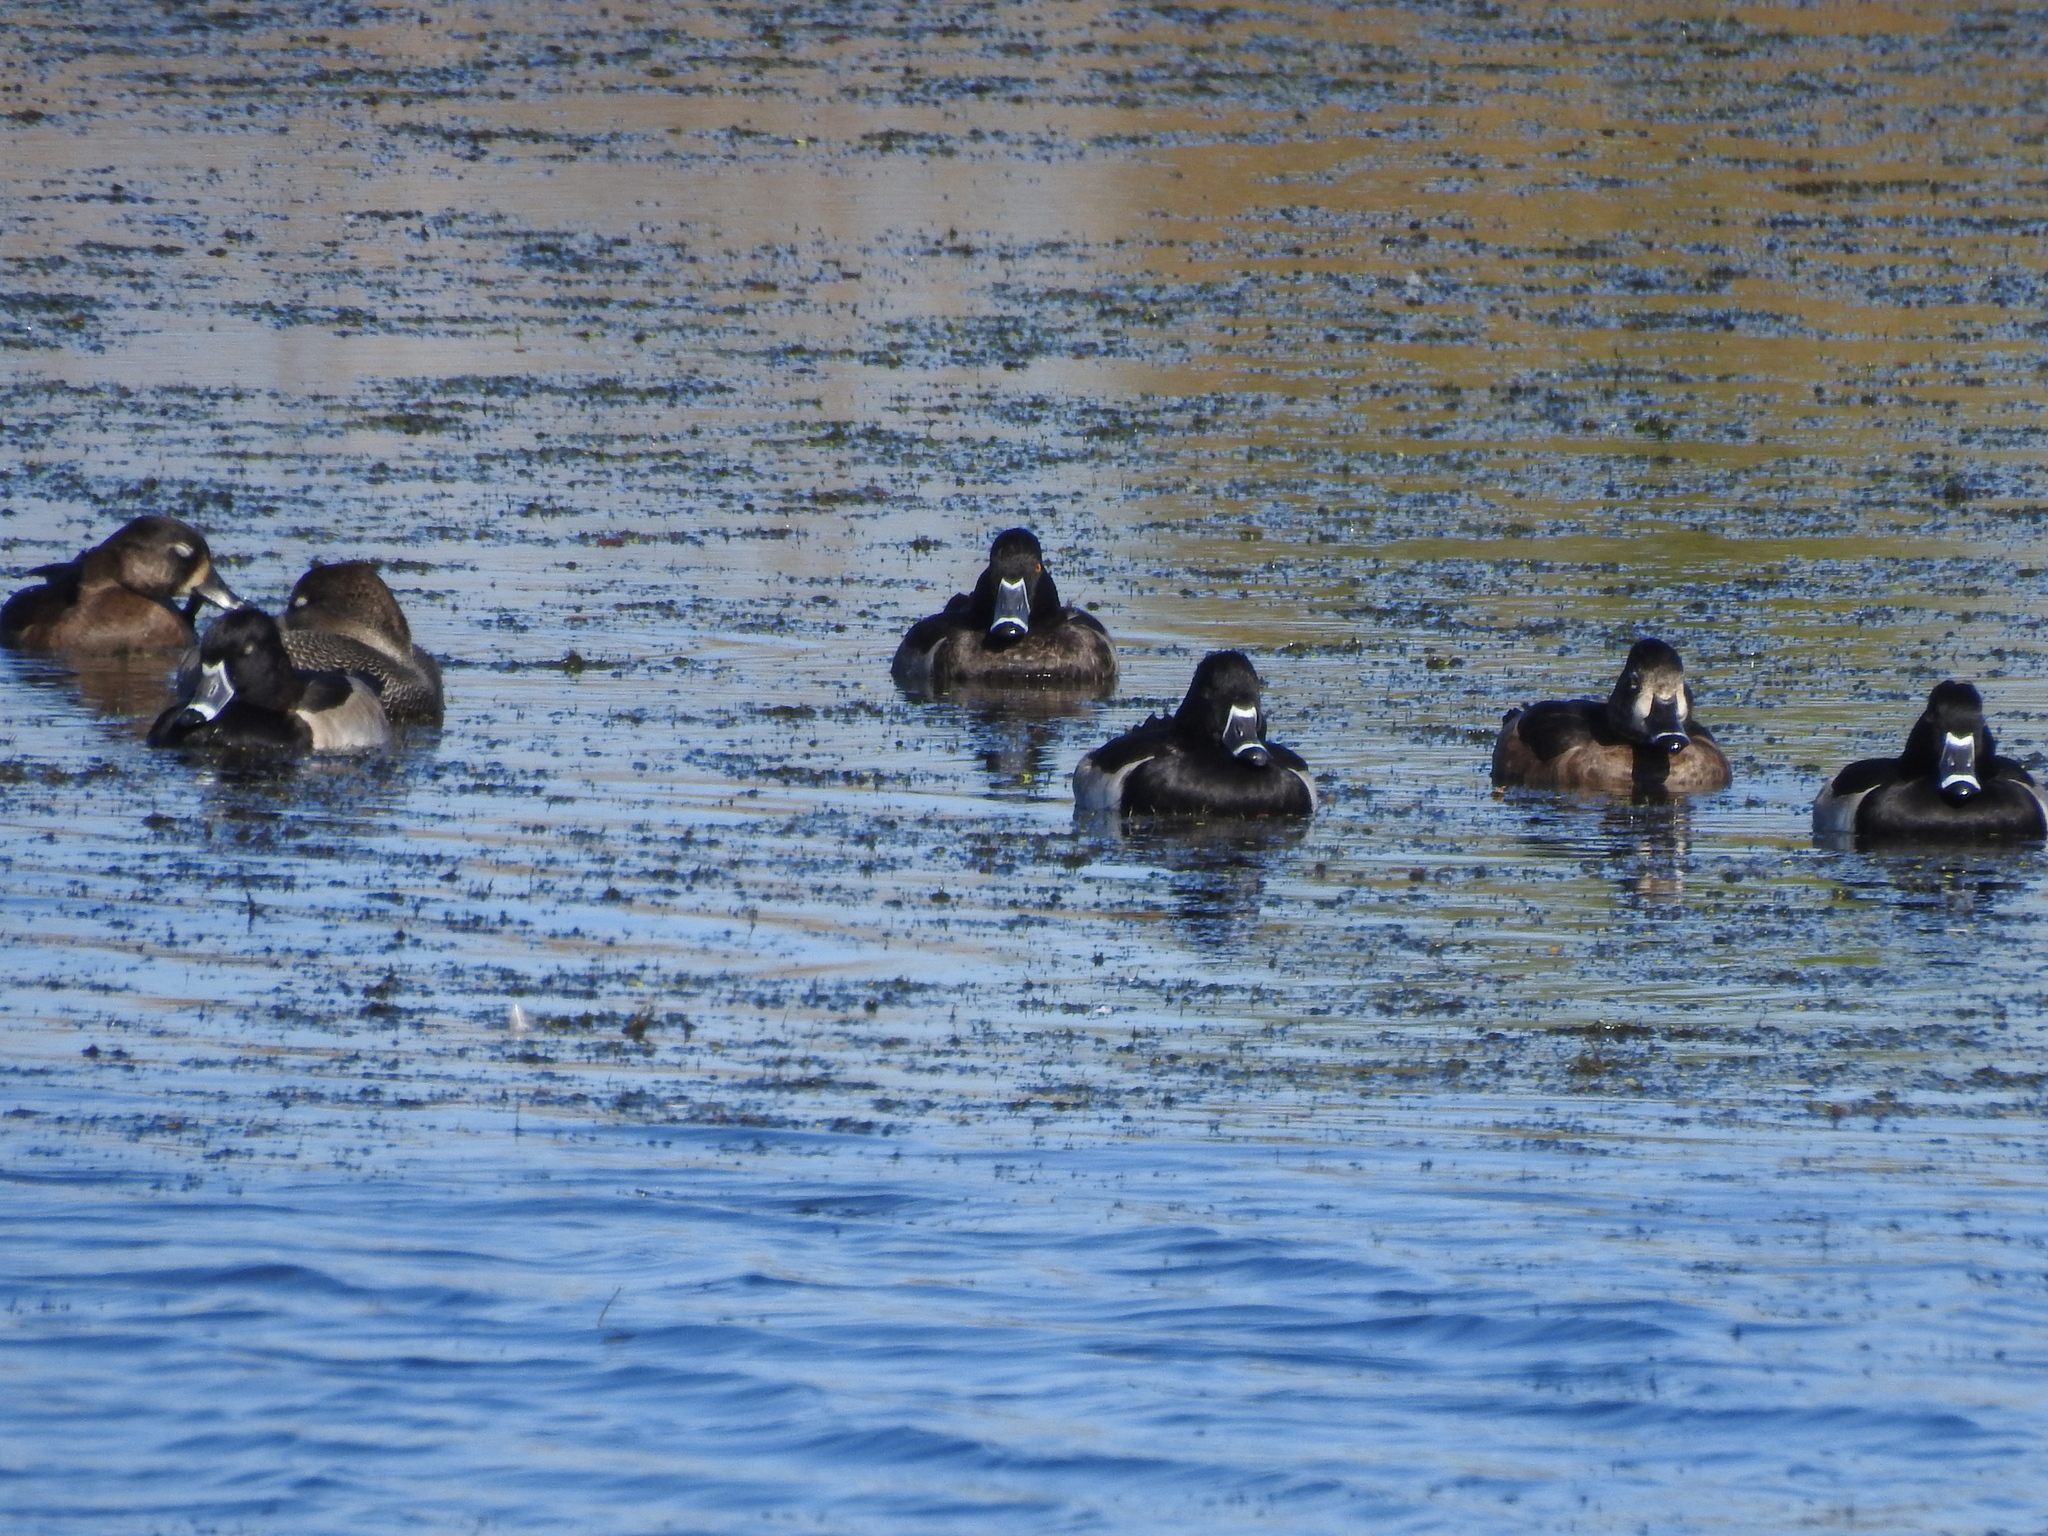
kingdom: Animalia
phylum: Chordata
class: Aves
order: Anseriformes
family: Anatidae
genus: Aythya
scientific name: Aythya collaris
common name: Ring-necked duck
